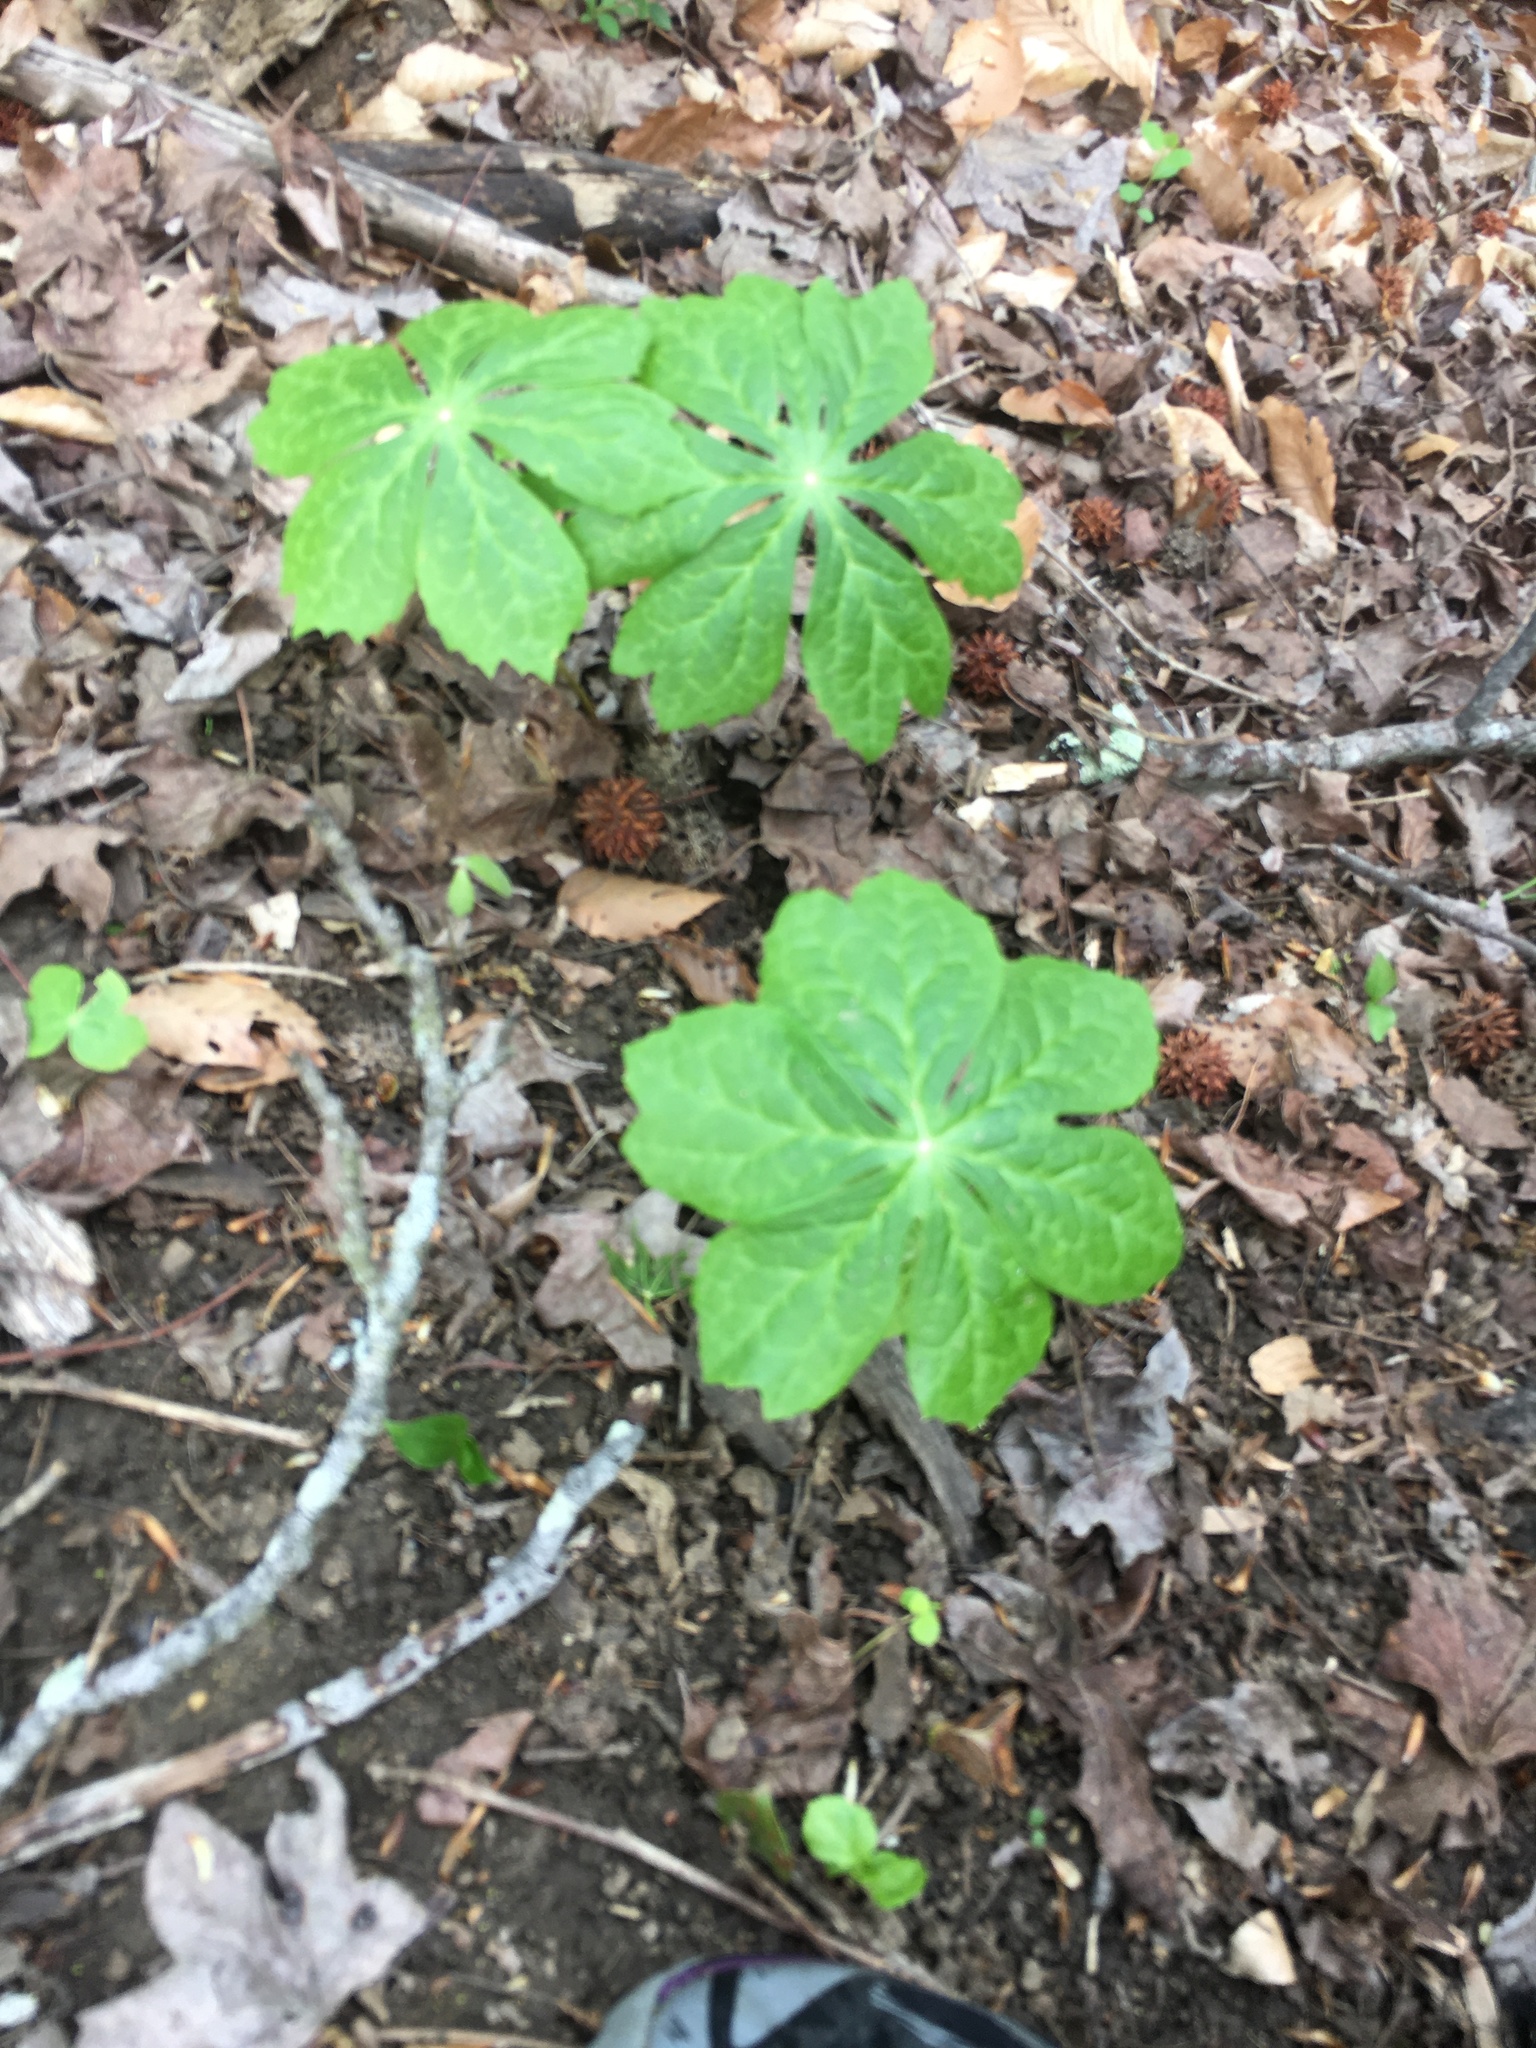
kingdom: Plantae
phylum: Tracheophyta
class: Magnoliopsida
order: Ranunculales
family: Berberidaceae
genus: Podophyllum
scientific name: Podophyllum peltatum
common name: Wild mandrake
